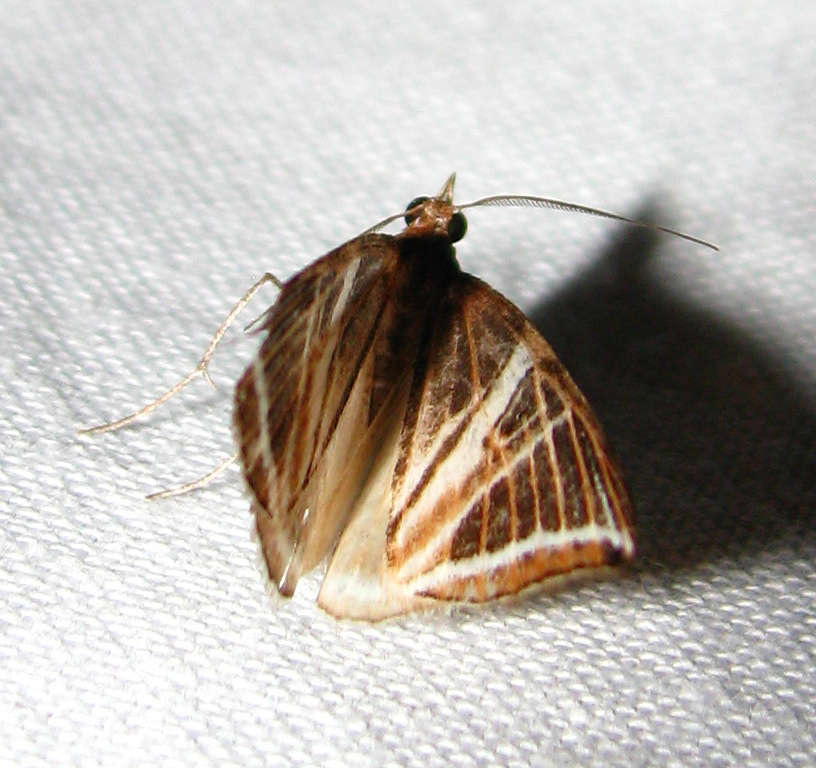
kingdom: Animalia
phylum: Arthropoda
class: Insecta
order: Lepidoptera
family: Geometridae
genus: Phrataria
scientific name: Phrataria transcissata
